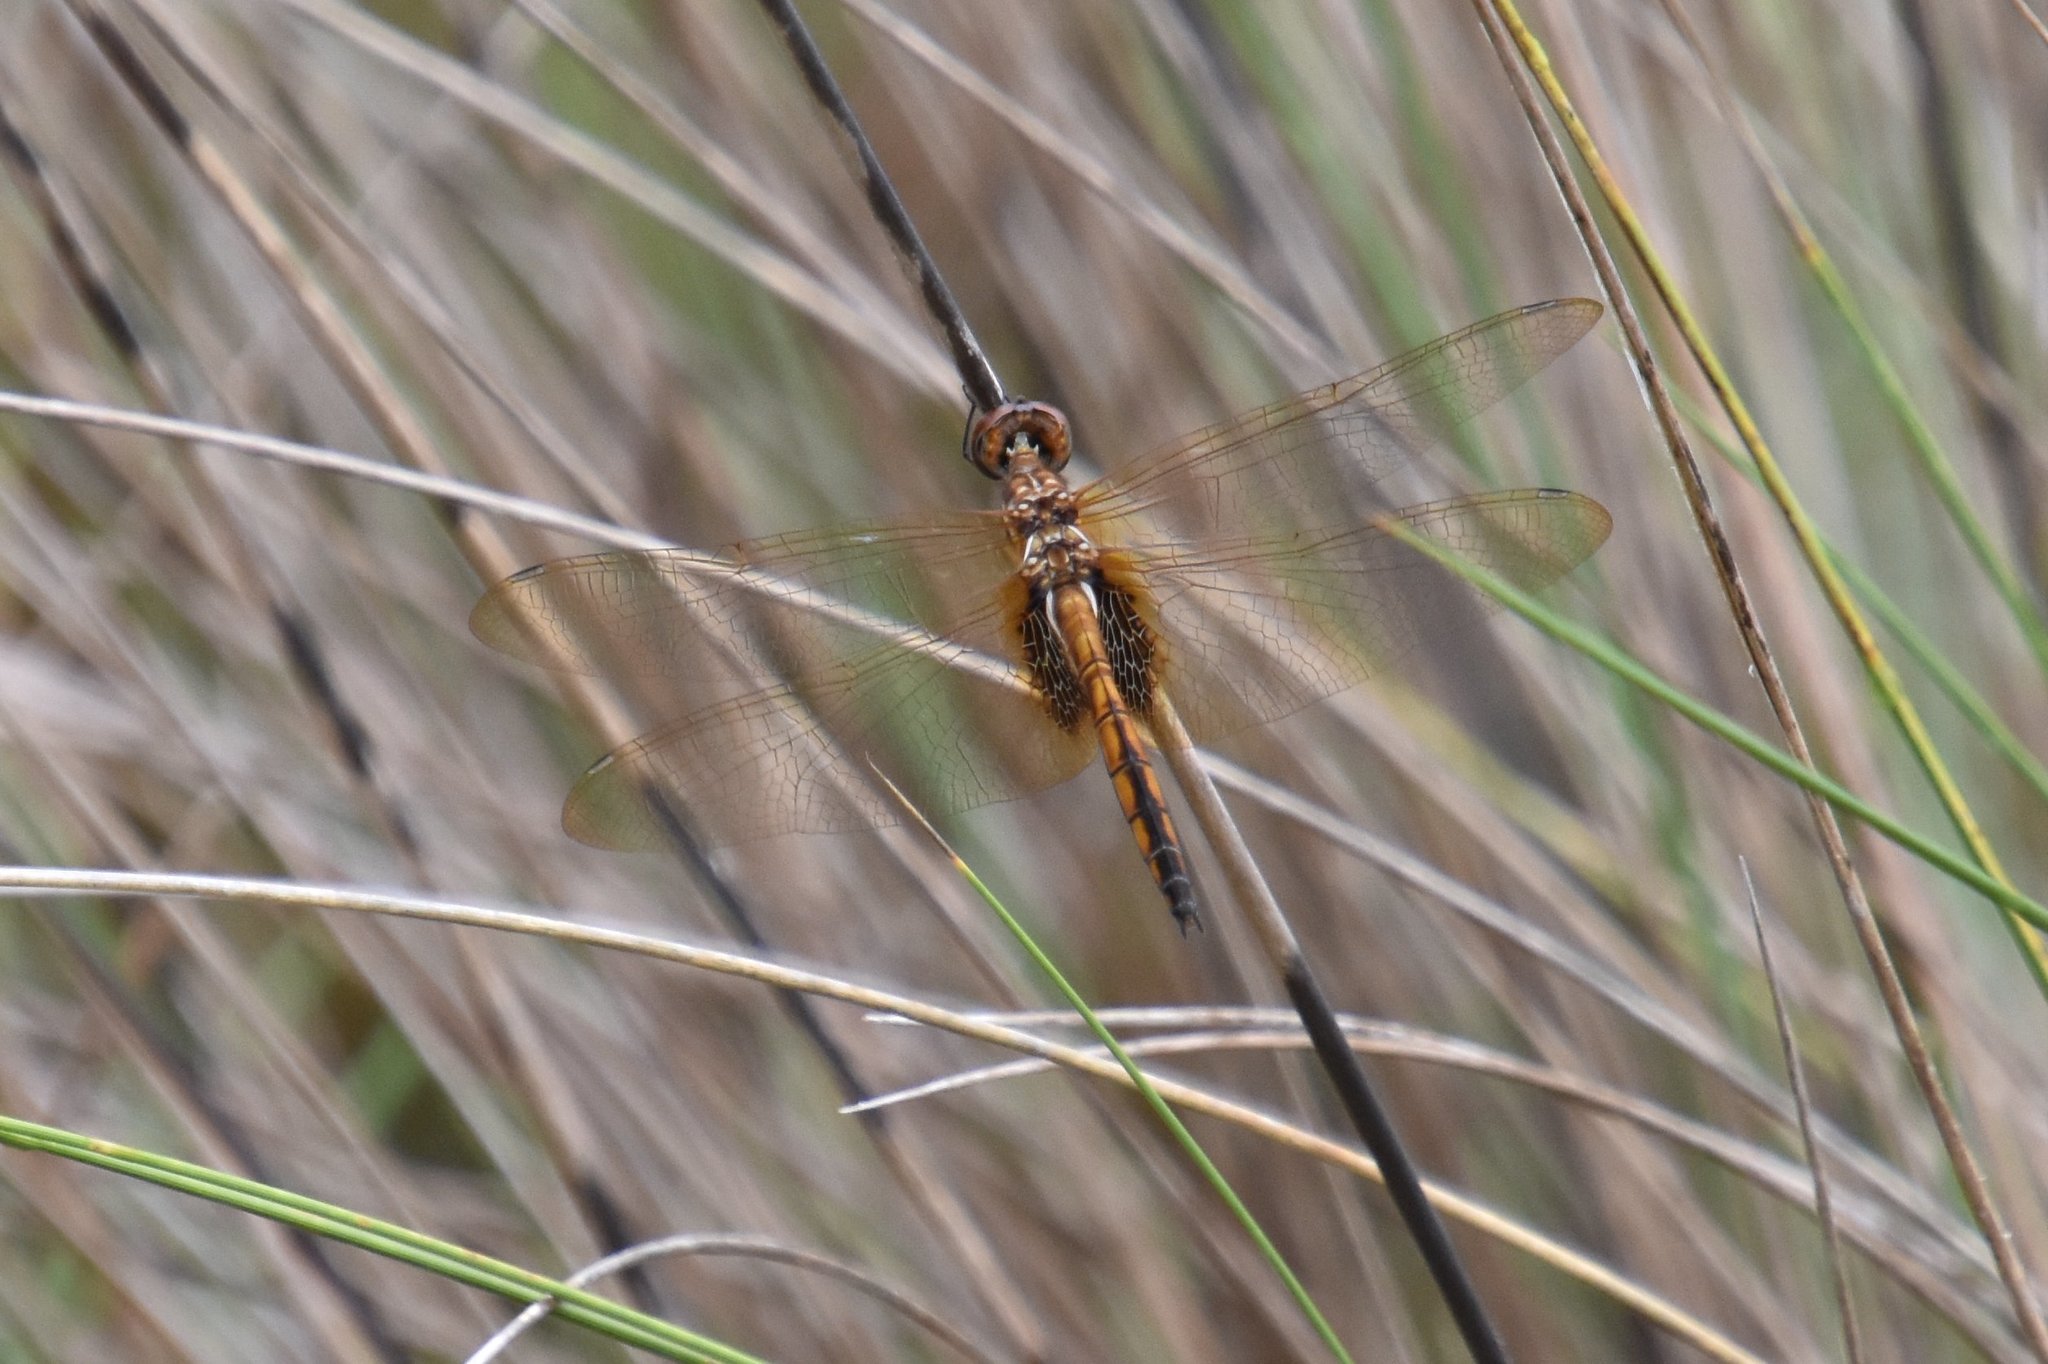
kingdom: Animalia
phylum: Arthropoda
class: Insecta
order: Odonata
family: Libellulidae
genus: Miathyria
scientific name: Miathyria marcella
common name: Hyacinth glider
